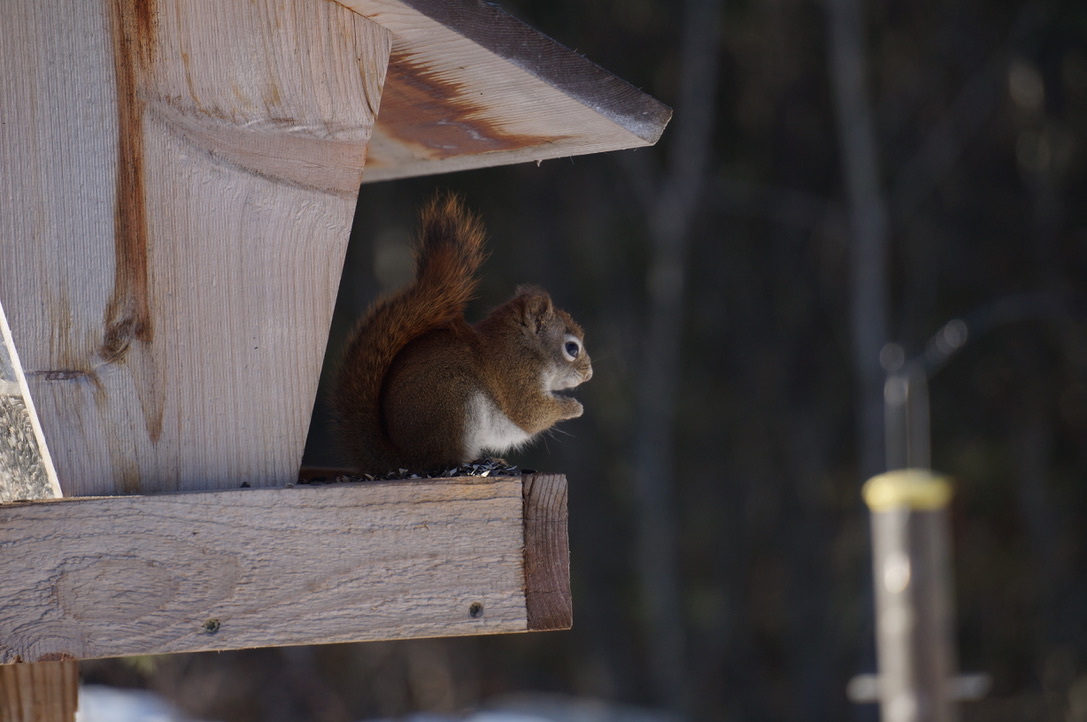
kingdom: Animalia
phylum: Chordata
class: Mammalia
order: Rodentia
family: Sciuridae
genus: Tamiasciurus
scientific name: Tamiasciurus hudsonicus
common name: Red squirrel
